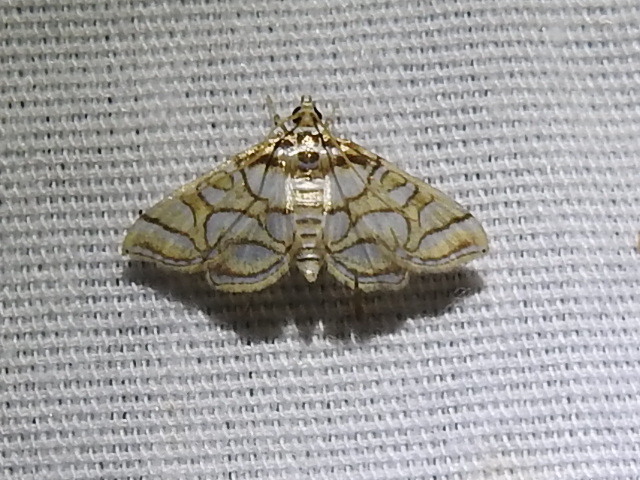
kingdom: Animalia
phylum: Arthropoda
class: Insecta
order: Lepidoptera
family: Crambidae
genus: Pseudopyrausta
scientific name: Pseudopyrausta santatalis
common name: Moth
